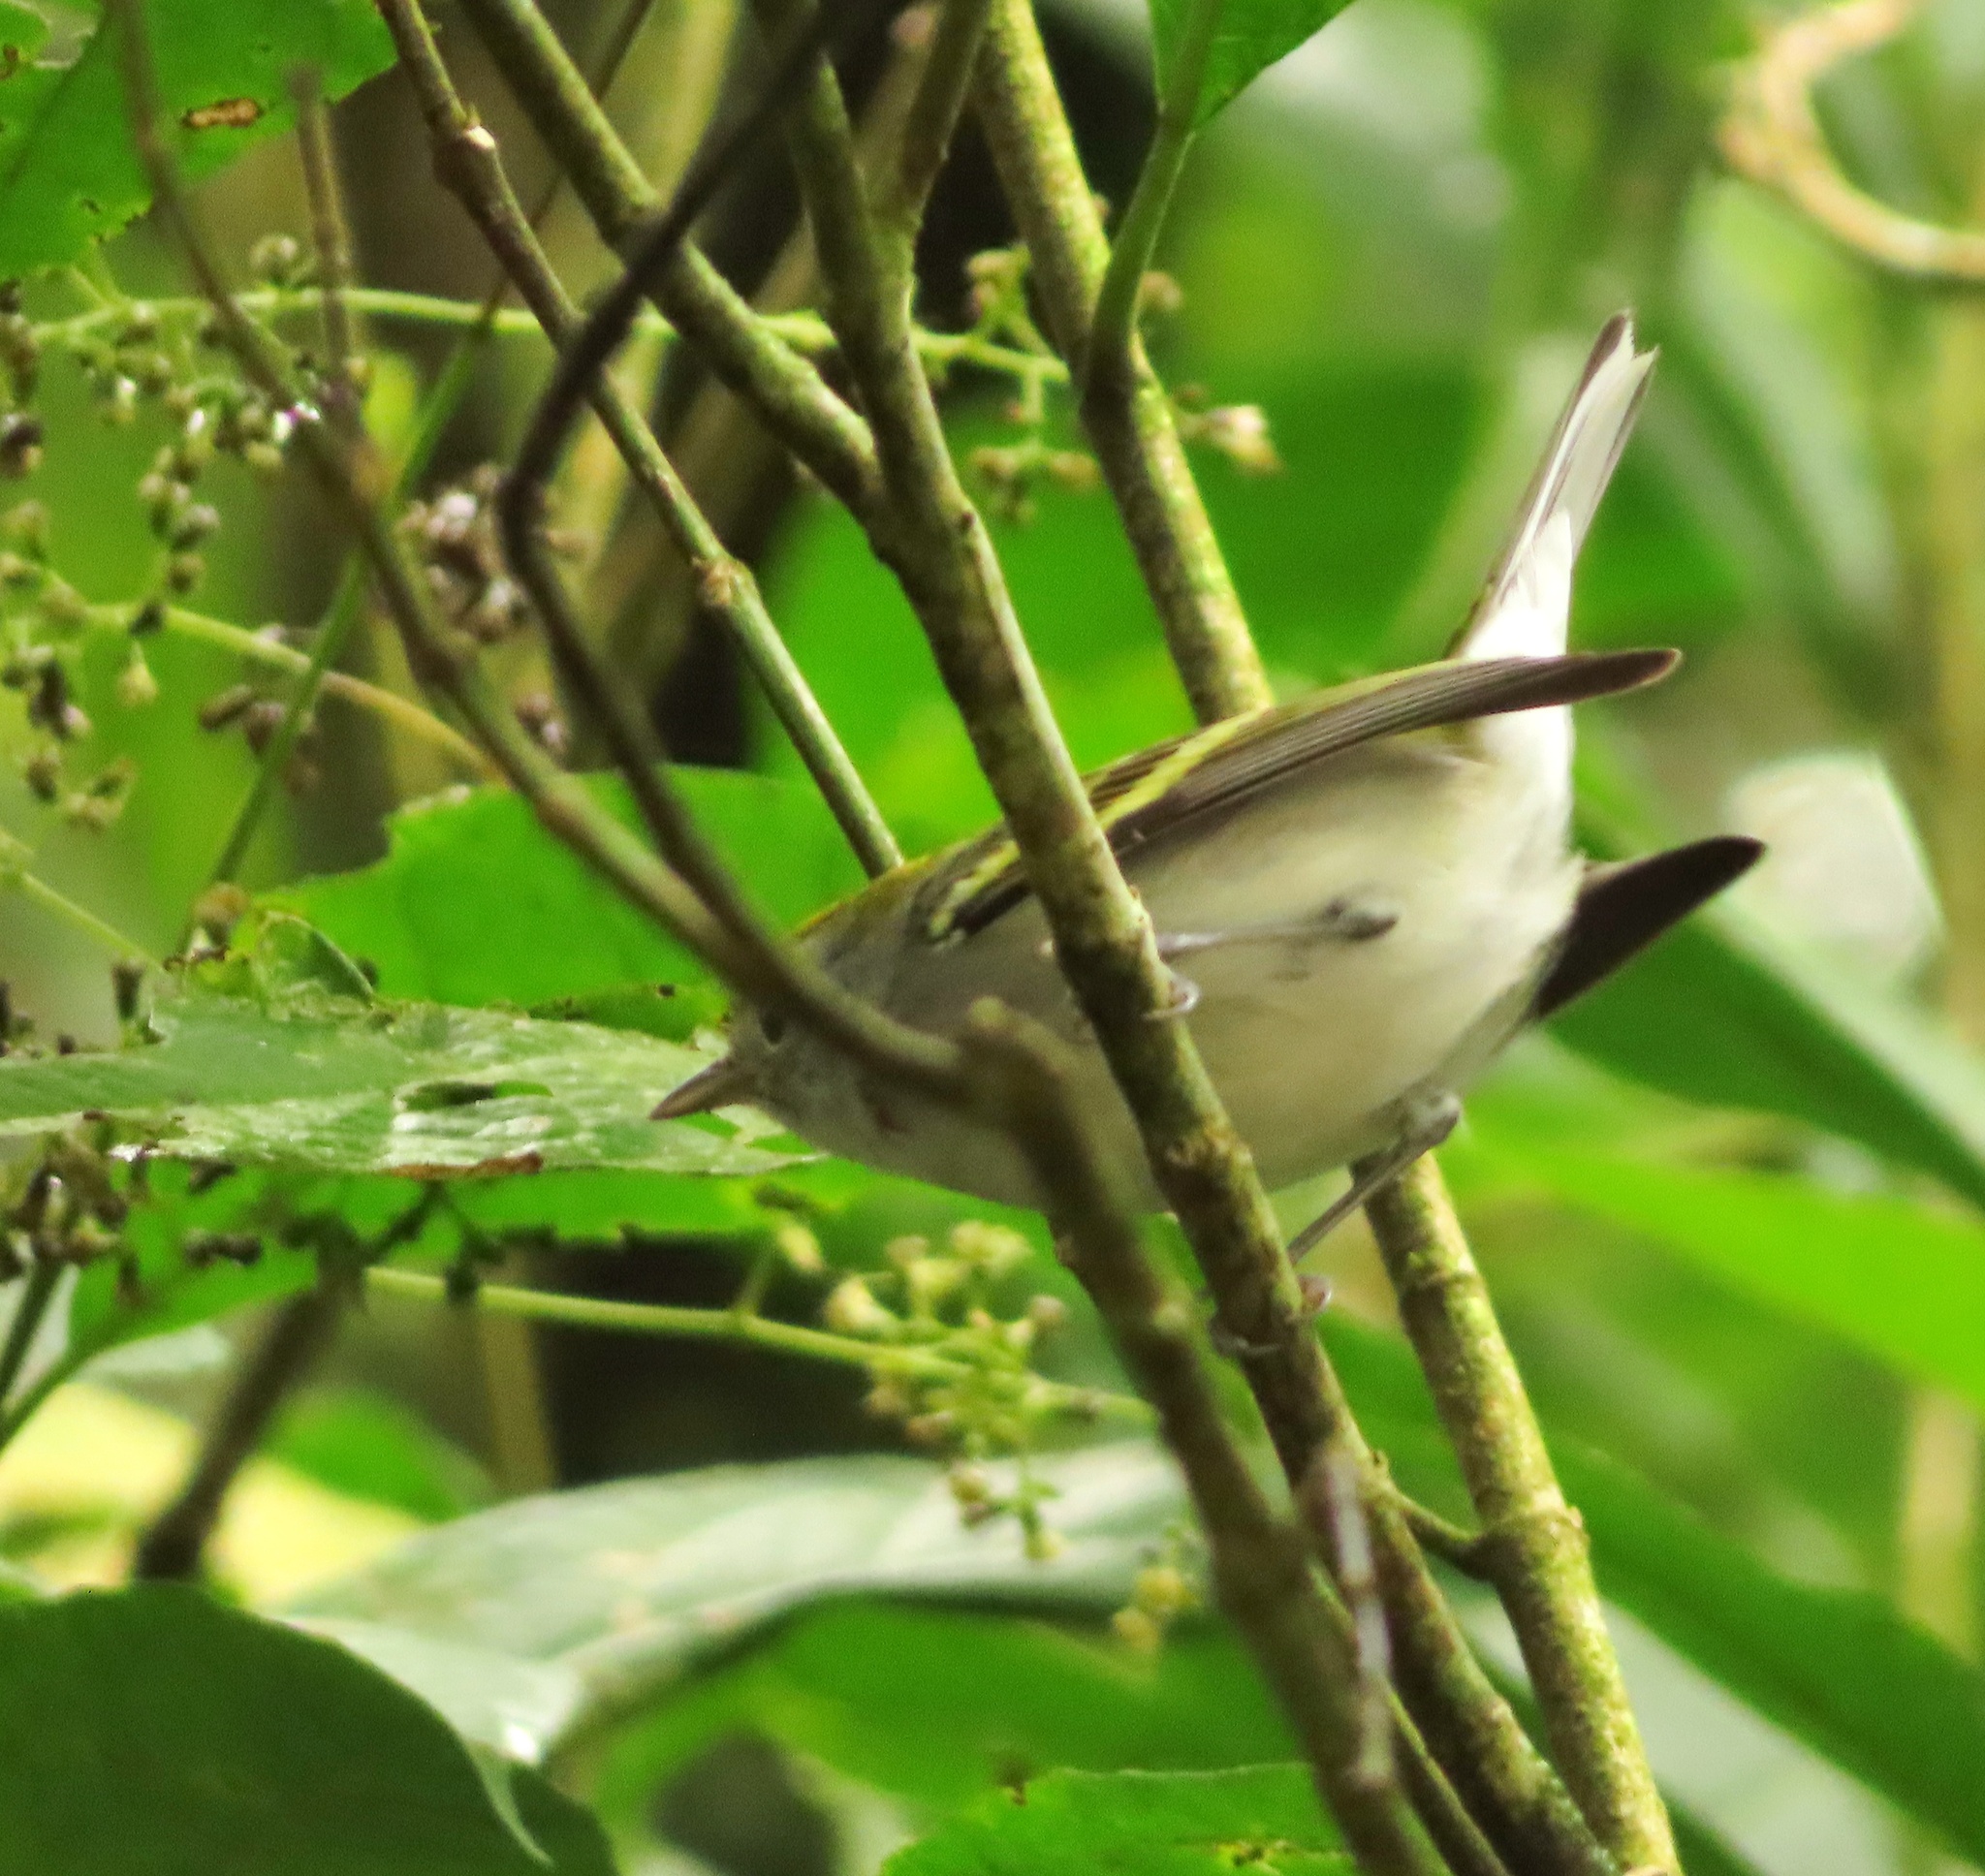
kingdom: Animalia
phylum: Chordata
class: Aves
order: Passeriformes
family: Parulidae
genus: Setophaga
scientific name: Setophaga pensylvanica
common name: Chestnut-sided warbler
